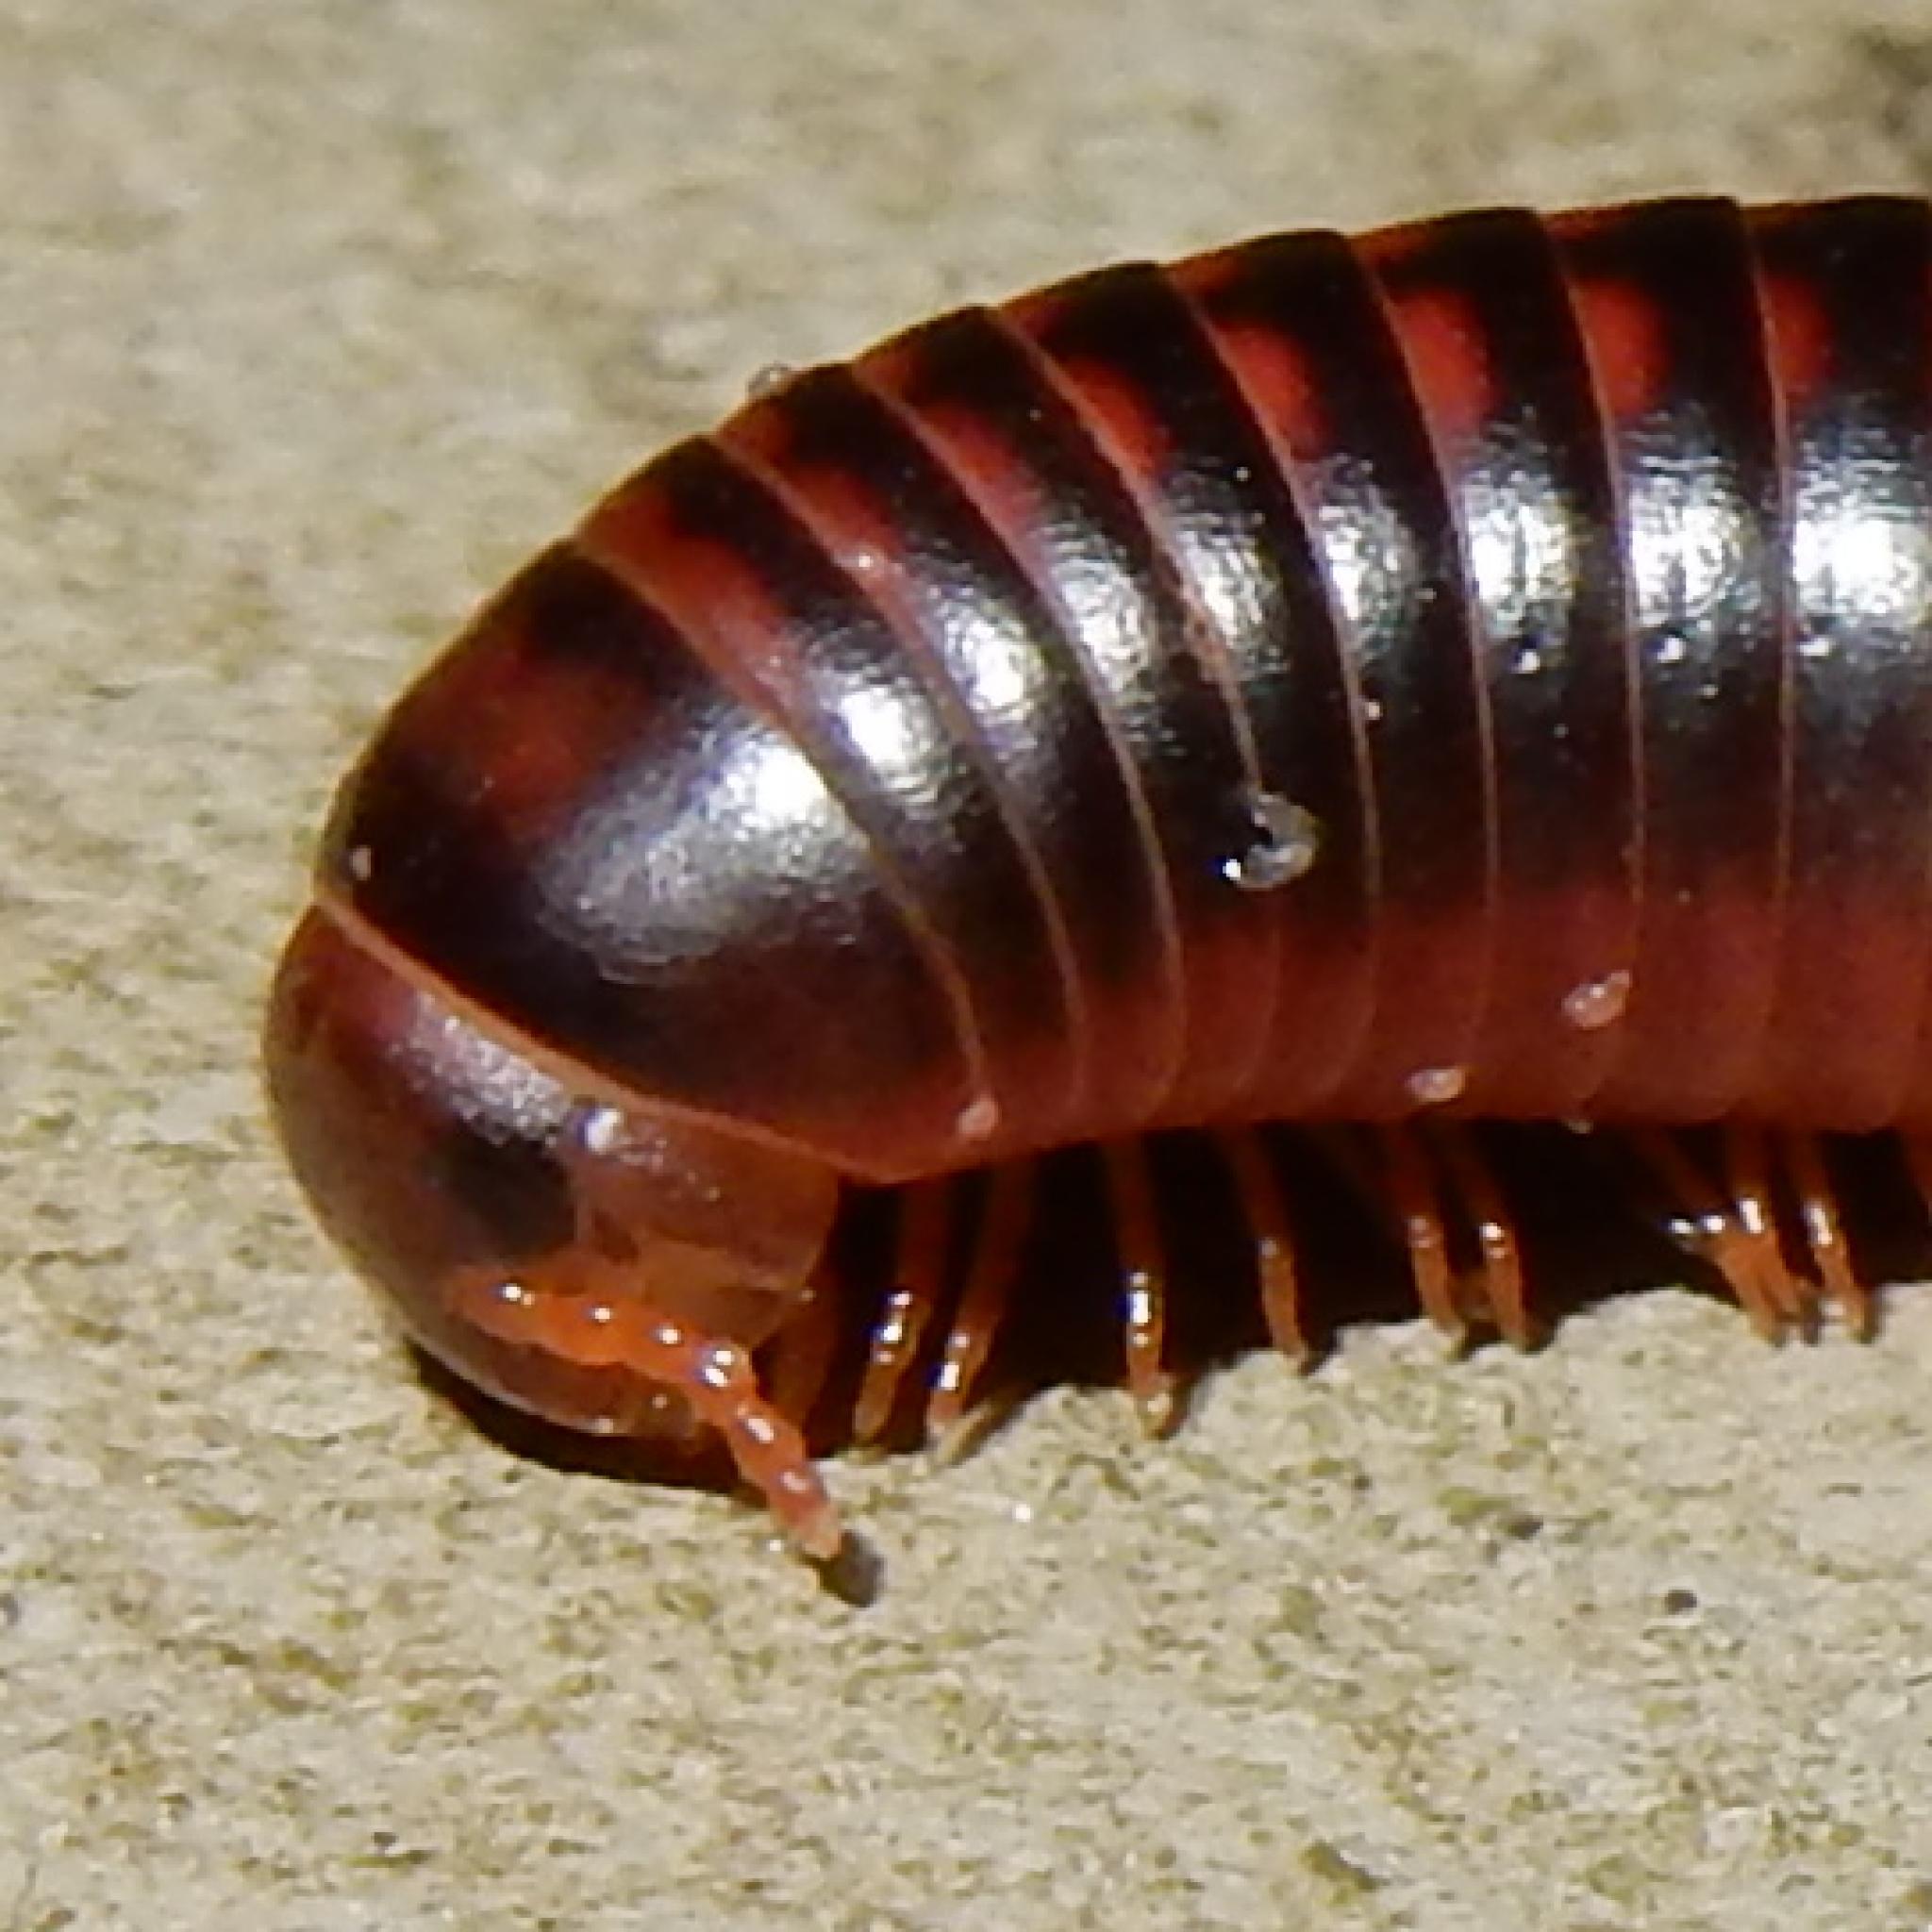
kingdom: Animalia
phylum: Arthropoda
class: Diplopoda
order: Spirobolida
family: Pachybolidae
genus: Centrobolus
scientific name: Centrobolus lugubris
